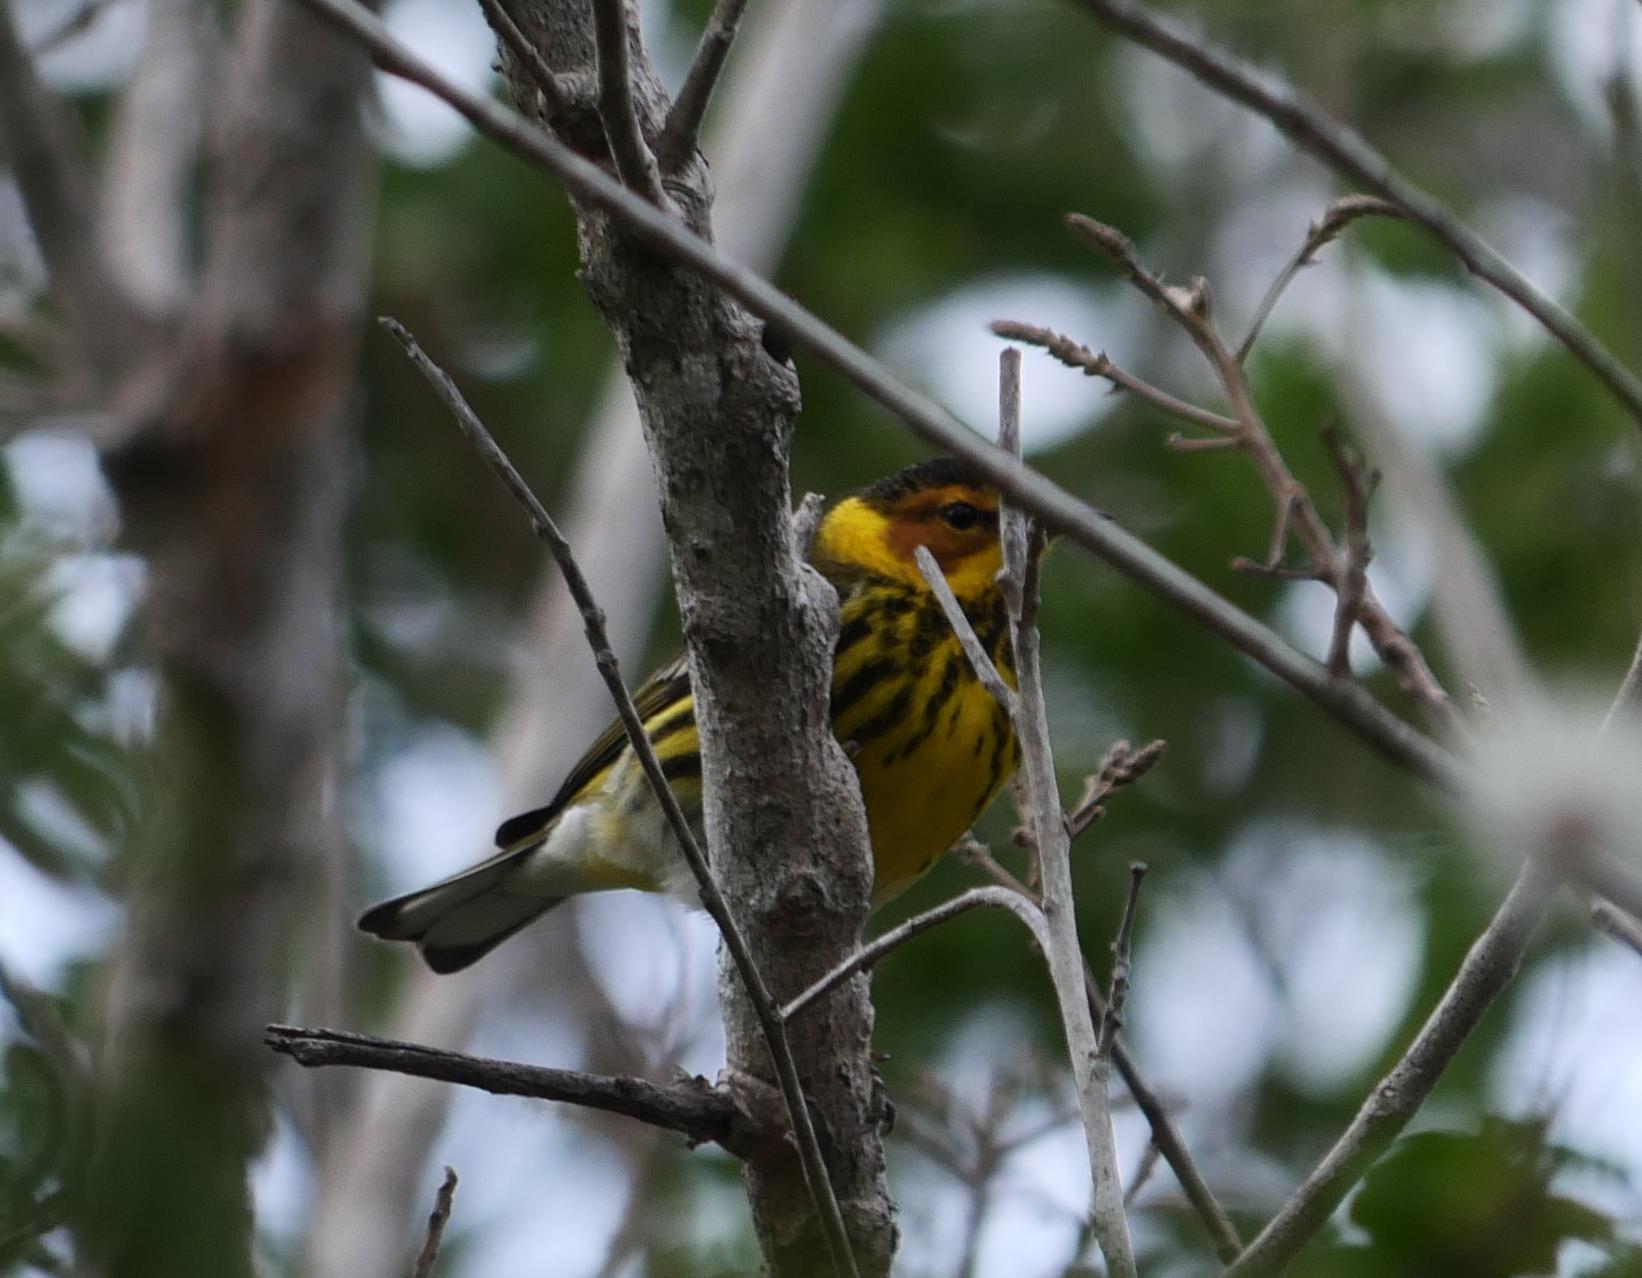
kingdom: Animalia
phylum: Chordata
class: Aves
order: Passeriformes
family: Parulidae
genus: Setophaga
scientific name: Setophaga tigrina
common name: Cape may warbler
